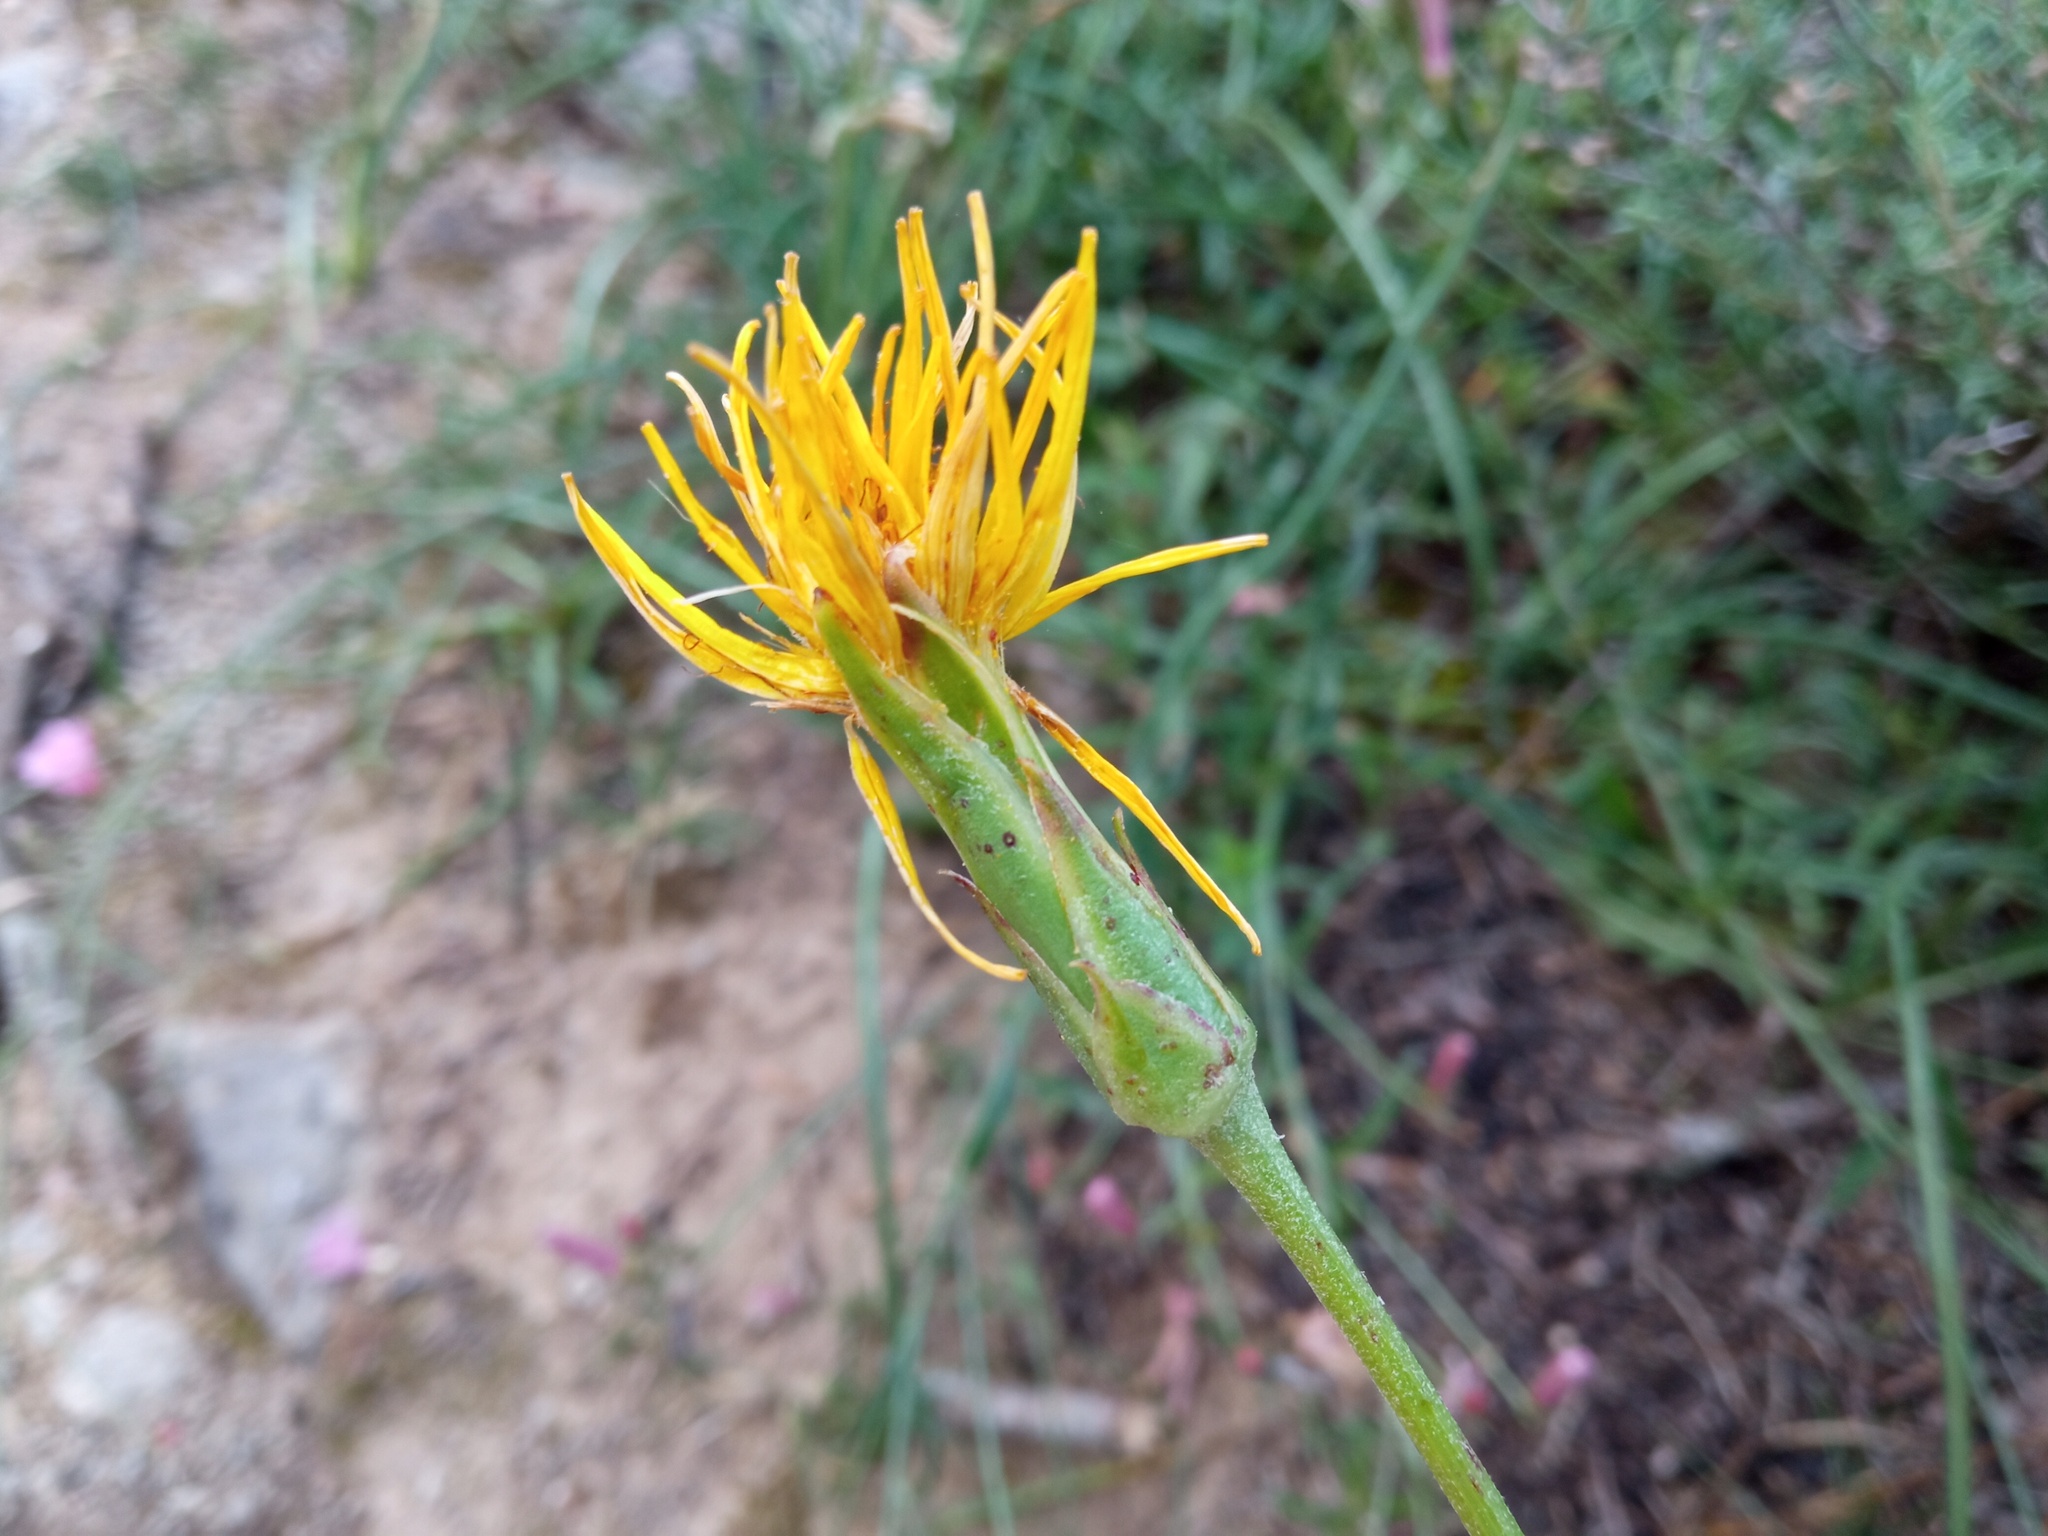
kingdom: Plantae
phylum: Tracheophyta
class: Magnoliopsida
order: Asterales
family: Asteraceae
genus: Pseudopodospermum
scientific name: Pseudopodospermum hispanicum
